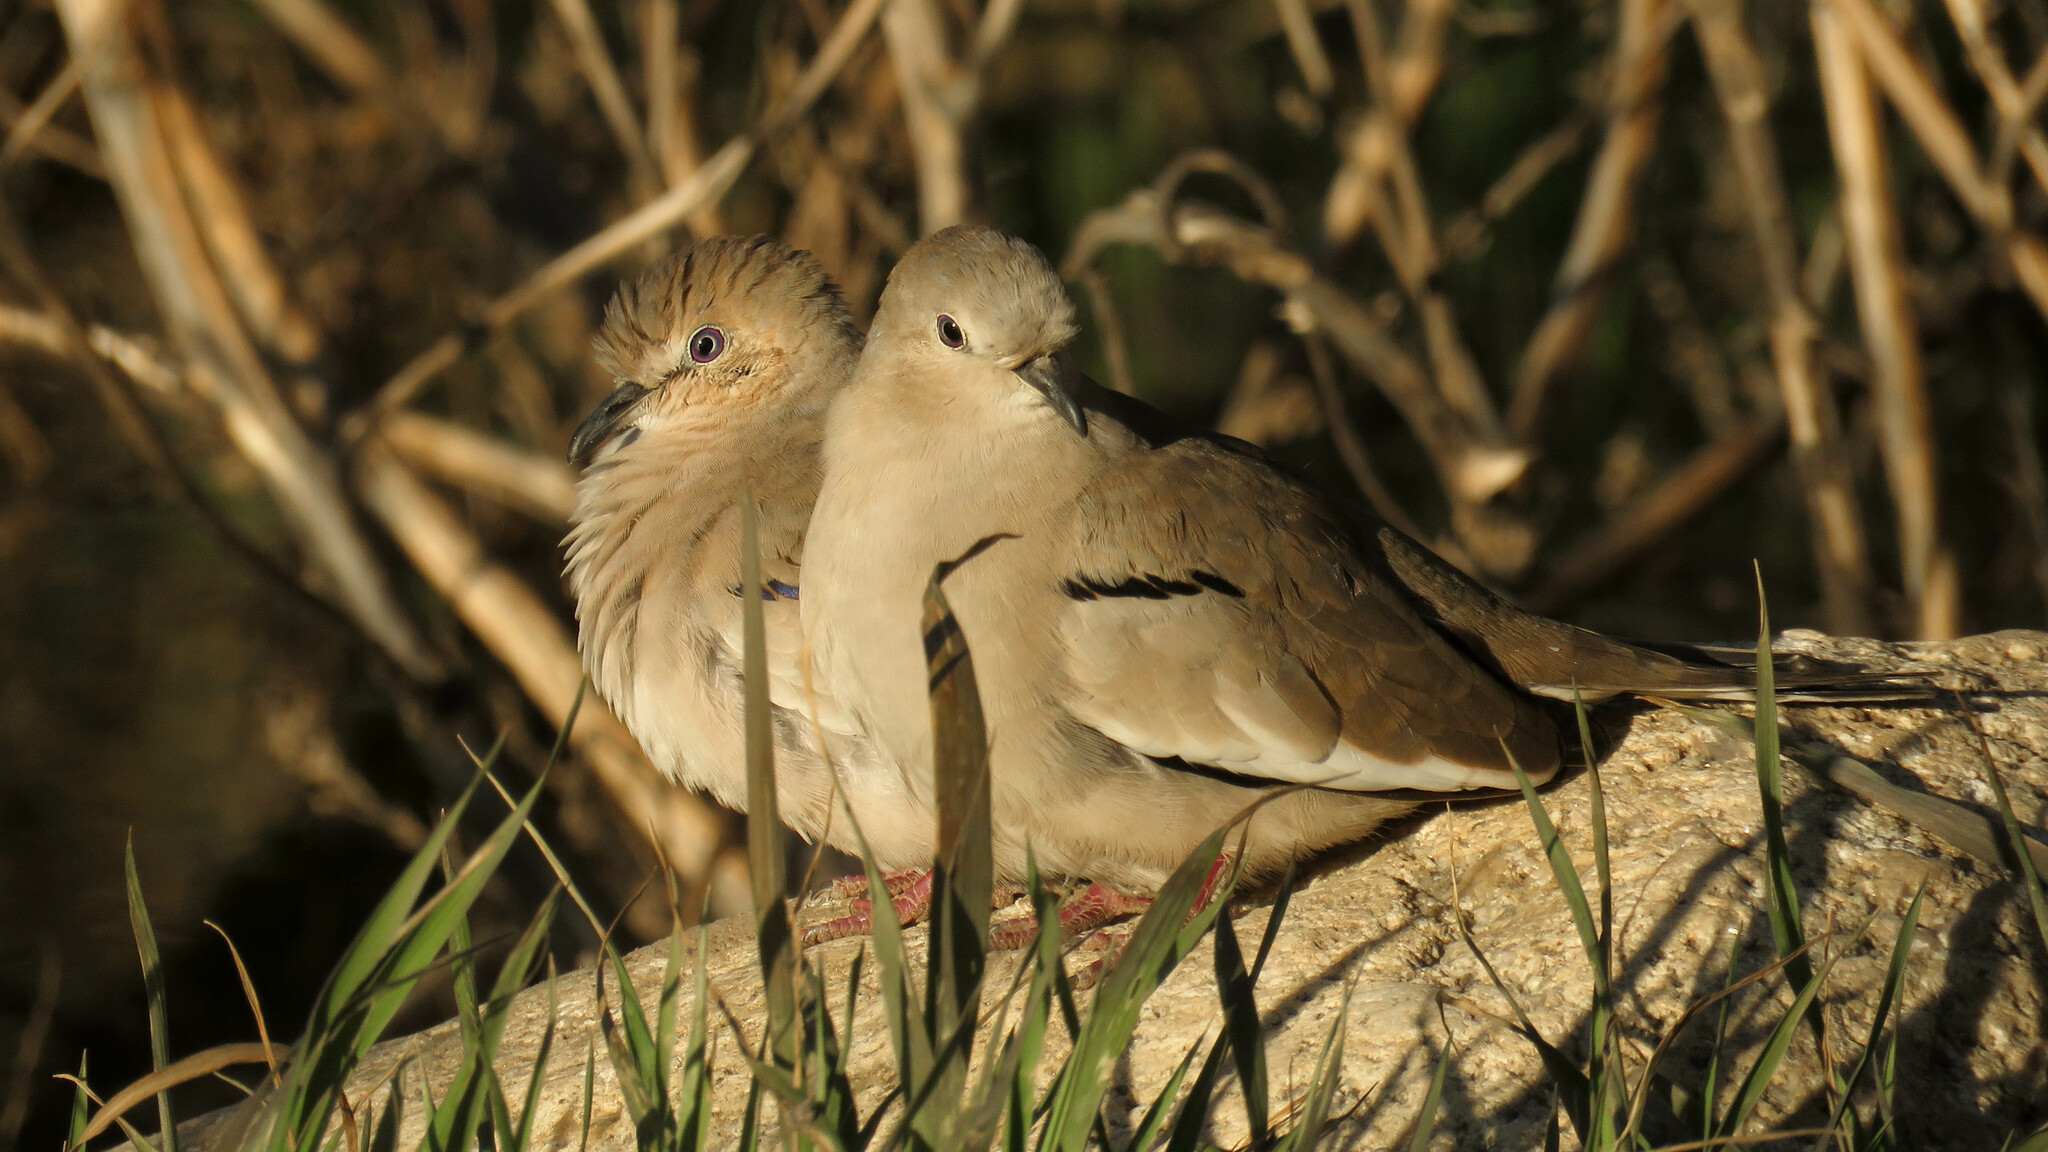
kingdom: Animalia
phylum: Chordata
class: Aves
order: Columbiformes
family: Columbidae
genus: Columbina
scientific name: Columbina picui
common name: Picui ground dove
